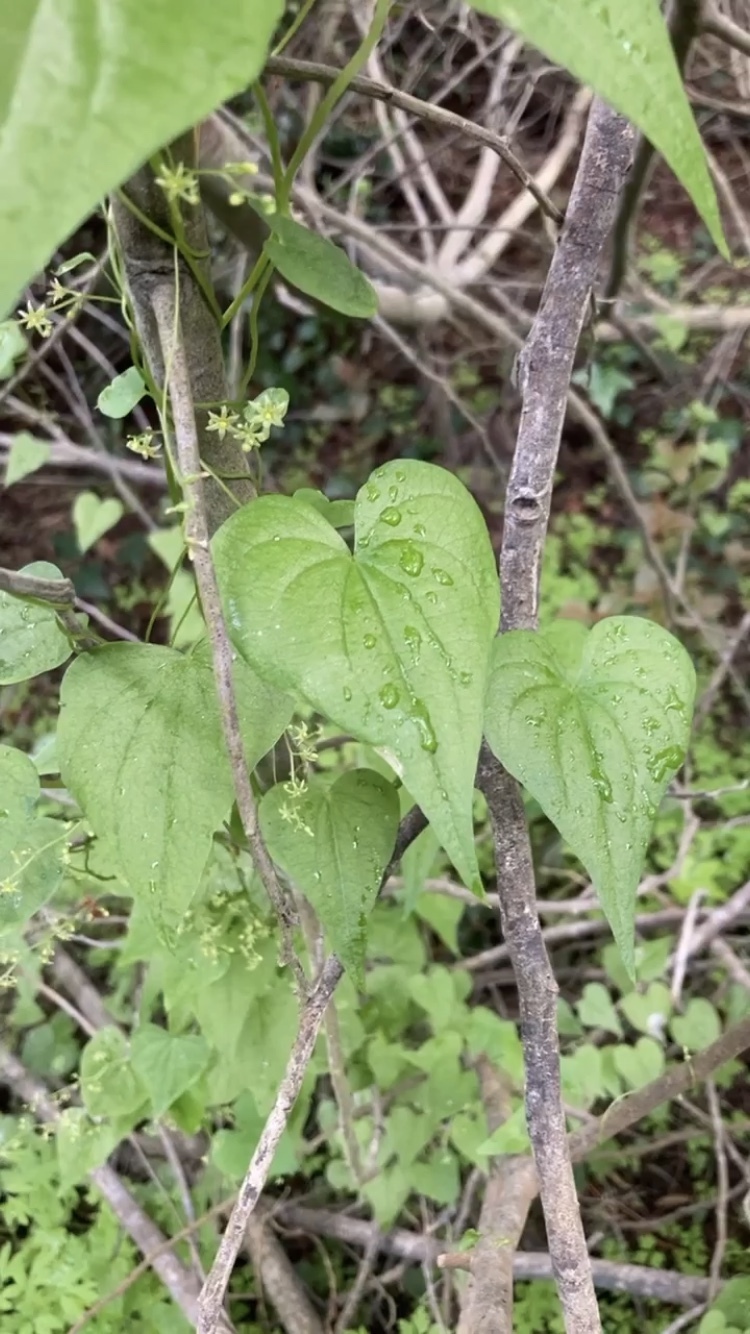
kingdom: Plantae
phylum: Tracheophyta
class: Liliopsida
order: Dioscoreales
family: Dioscoreaceae
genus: Dioscorea
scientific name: Dioscorea variifolia
